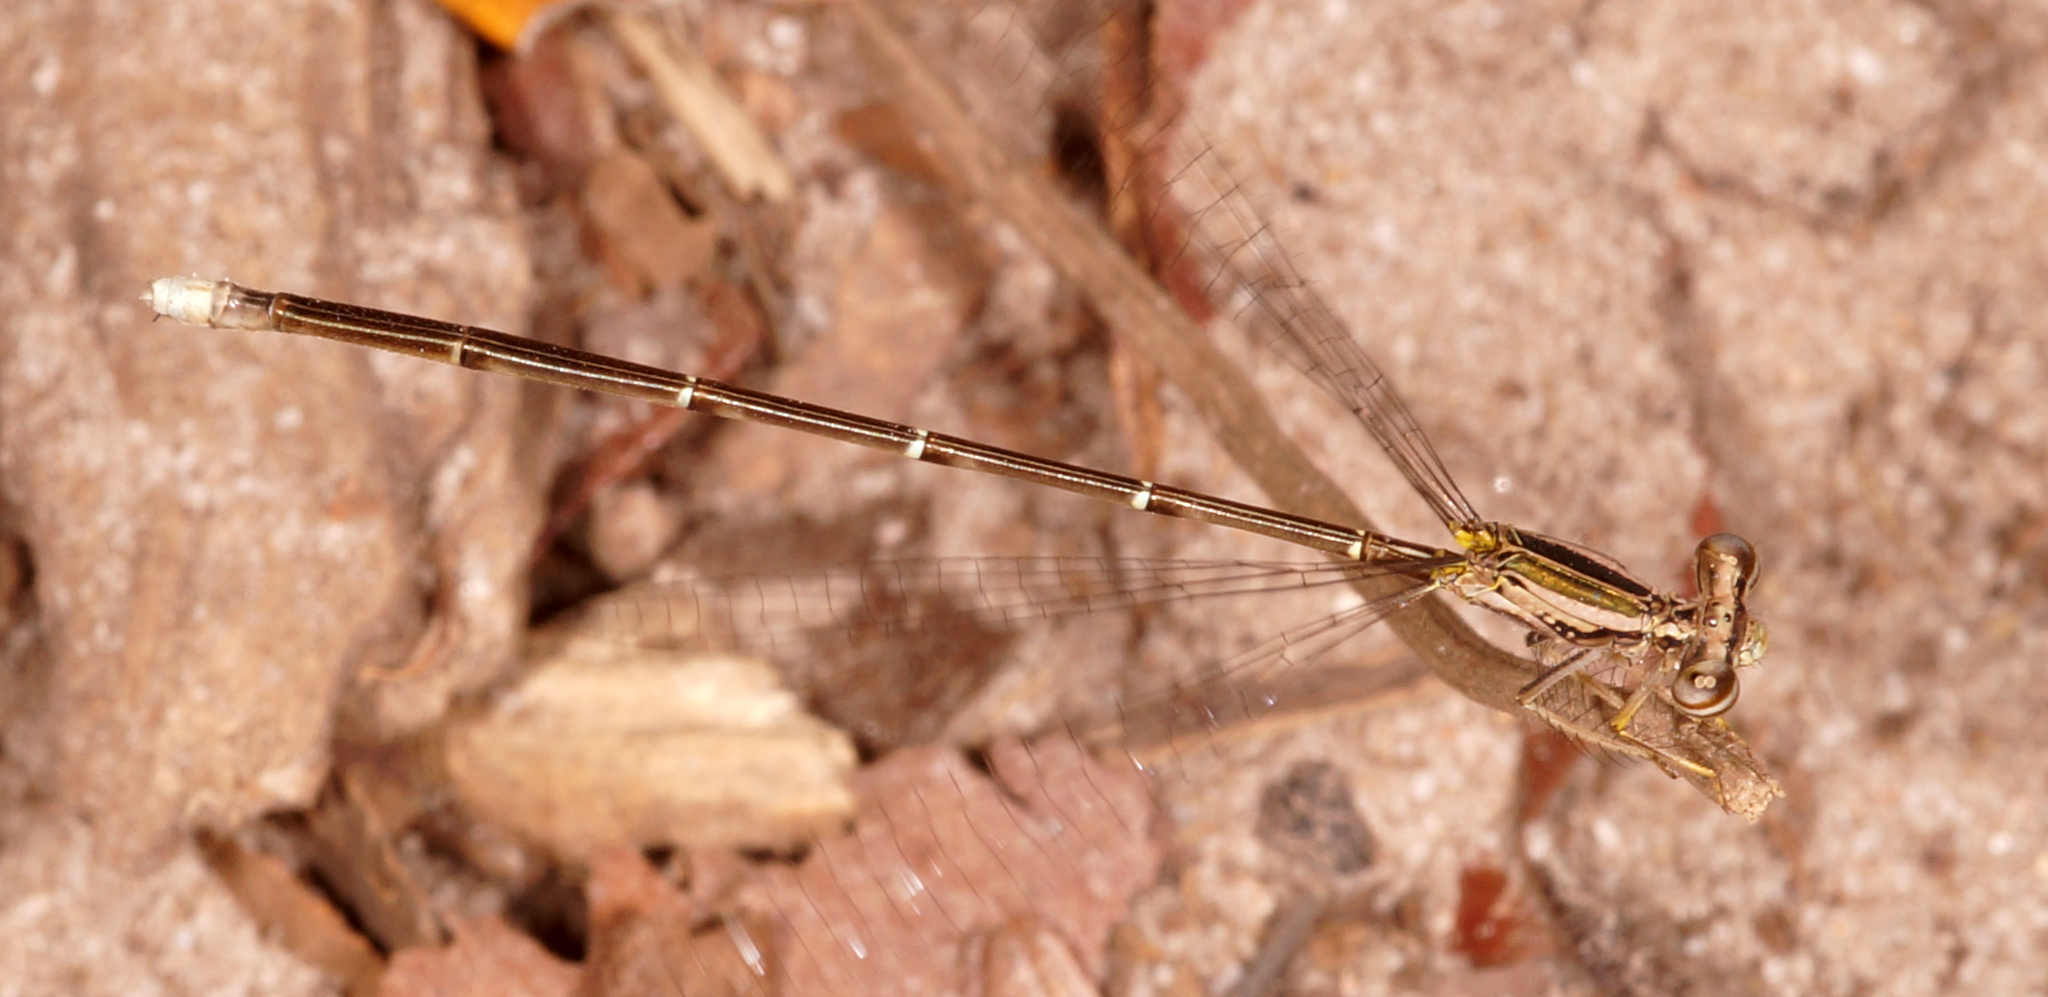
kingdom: Animalia
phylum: Arthropoda
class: Insecta
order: Odonata
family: Platycnemididae
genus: Copera
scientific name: Copera marginipes
